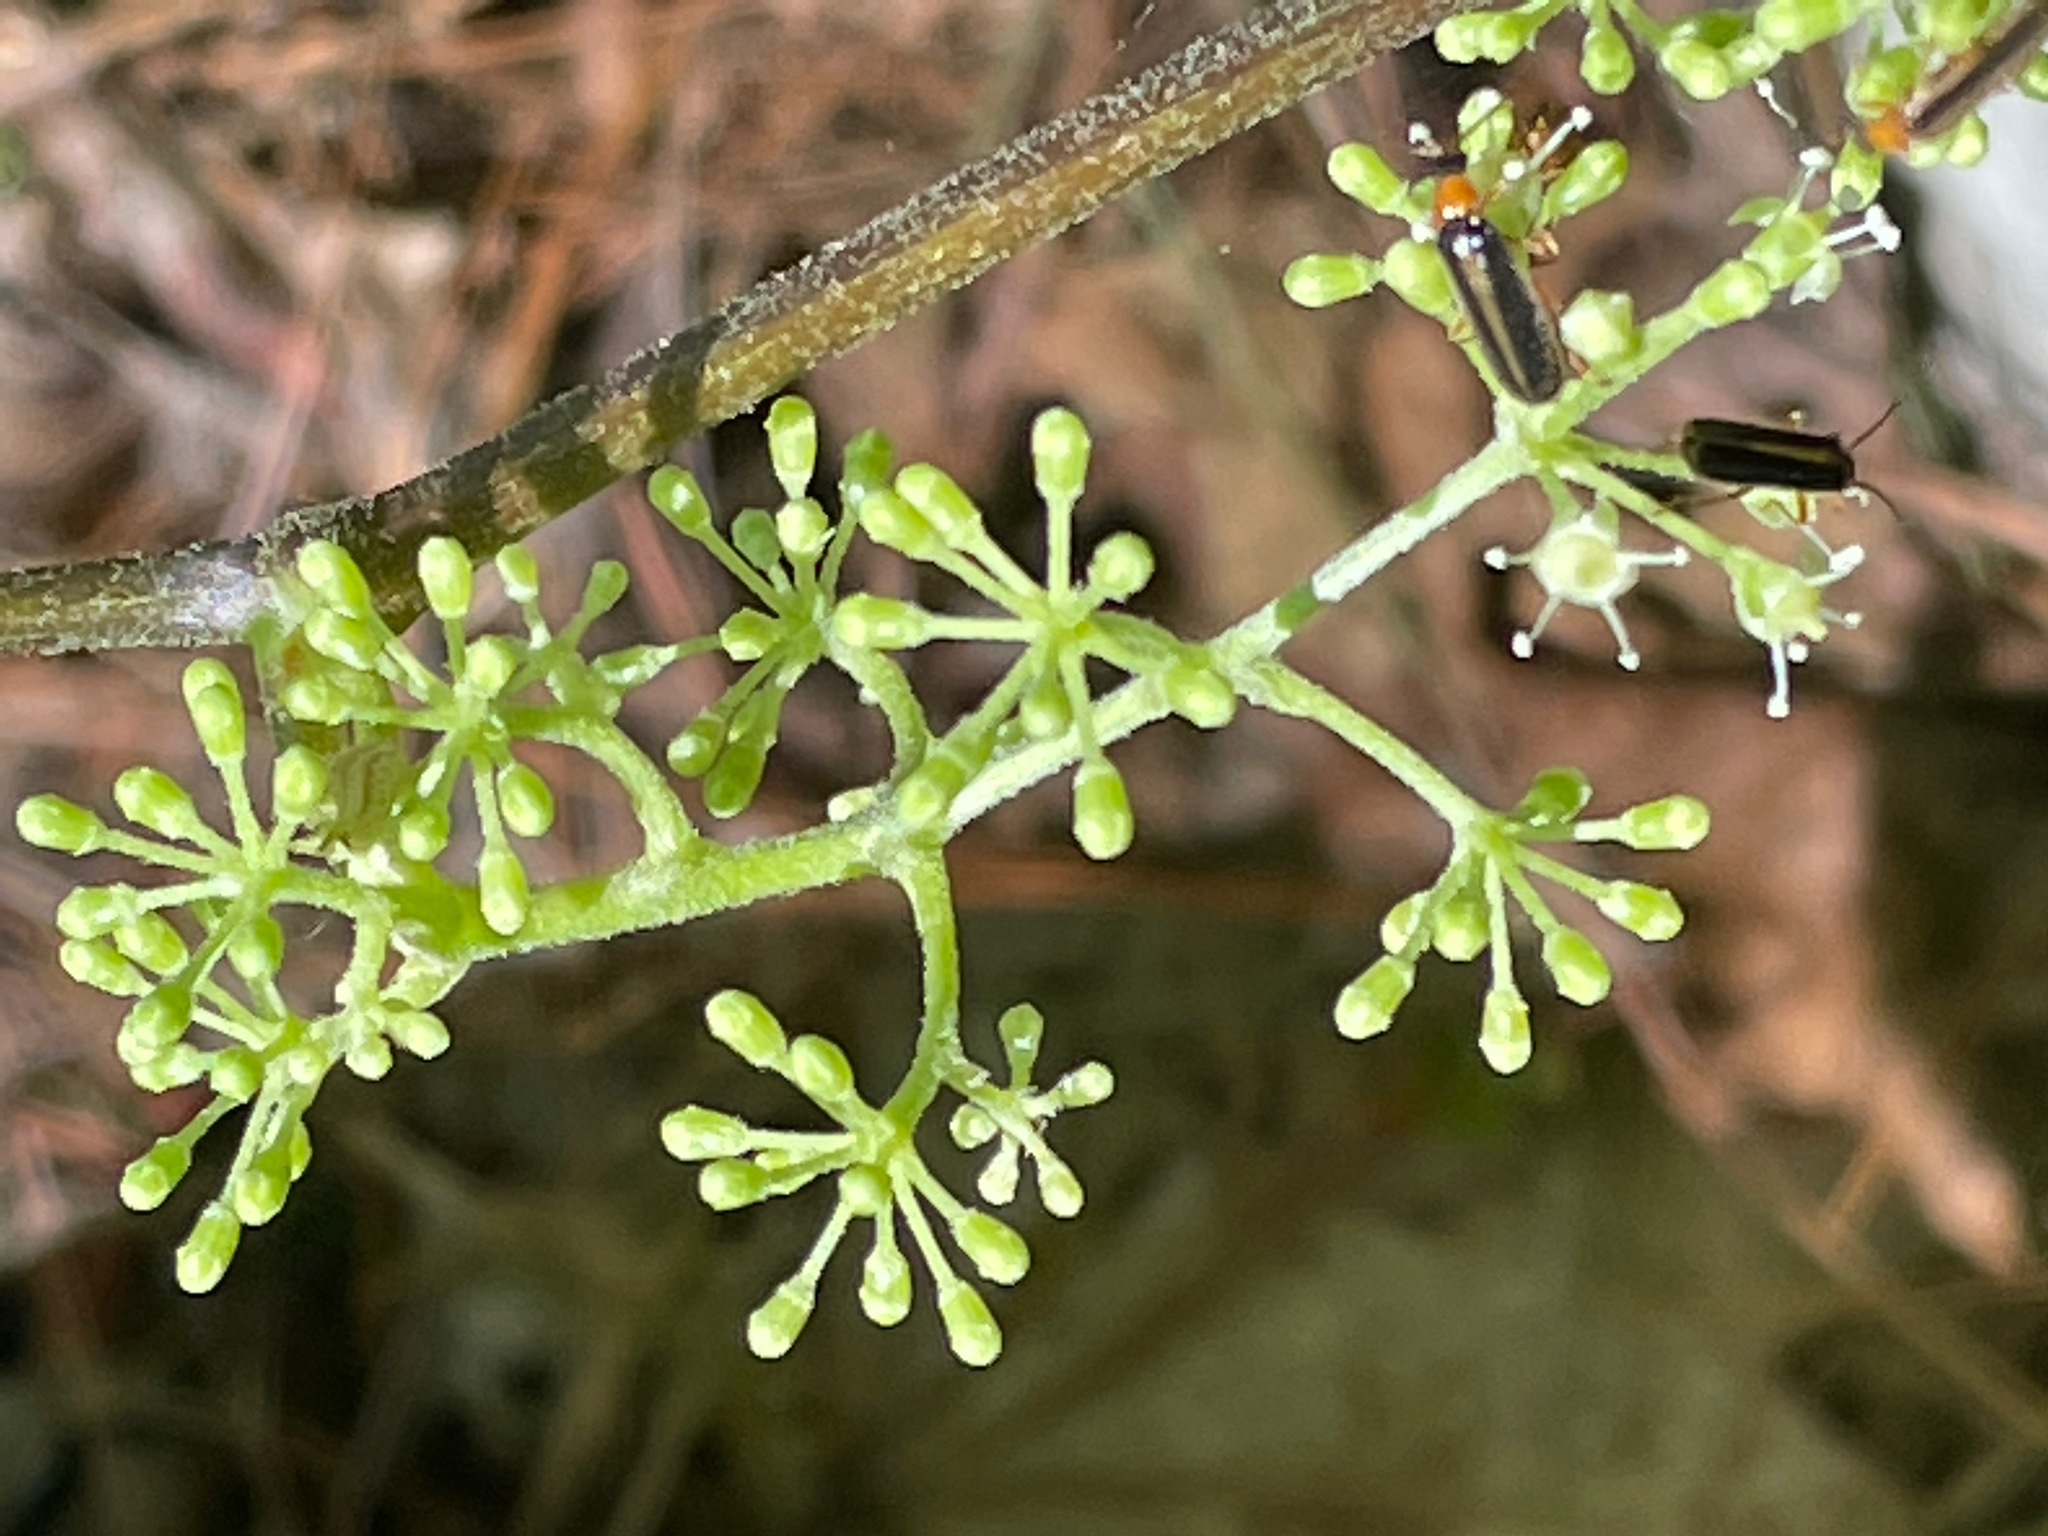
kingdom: Plantae
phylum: Tracheophyta
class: Magnoliopsida
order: Apiales
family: Araliaceae
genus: Aralia
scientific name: Aralia racemosa
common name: American-spikenard
